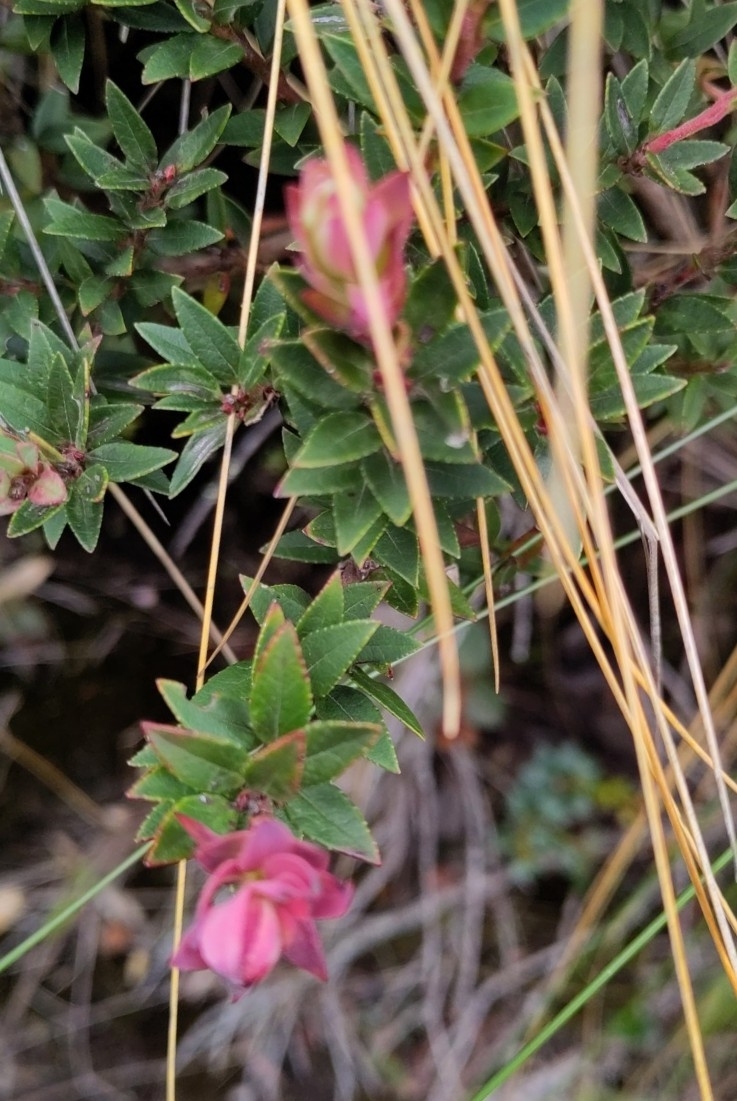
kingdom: Plantae
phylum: Tracheophyta
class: Magnoliopsida
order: Ericales
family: Ericaceae
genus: Vaccinium
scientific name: Vaccinium floribundum
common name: Colombian blueberry
